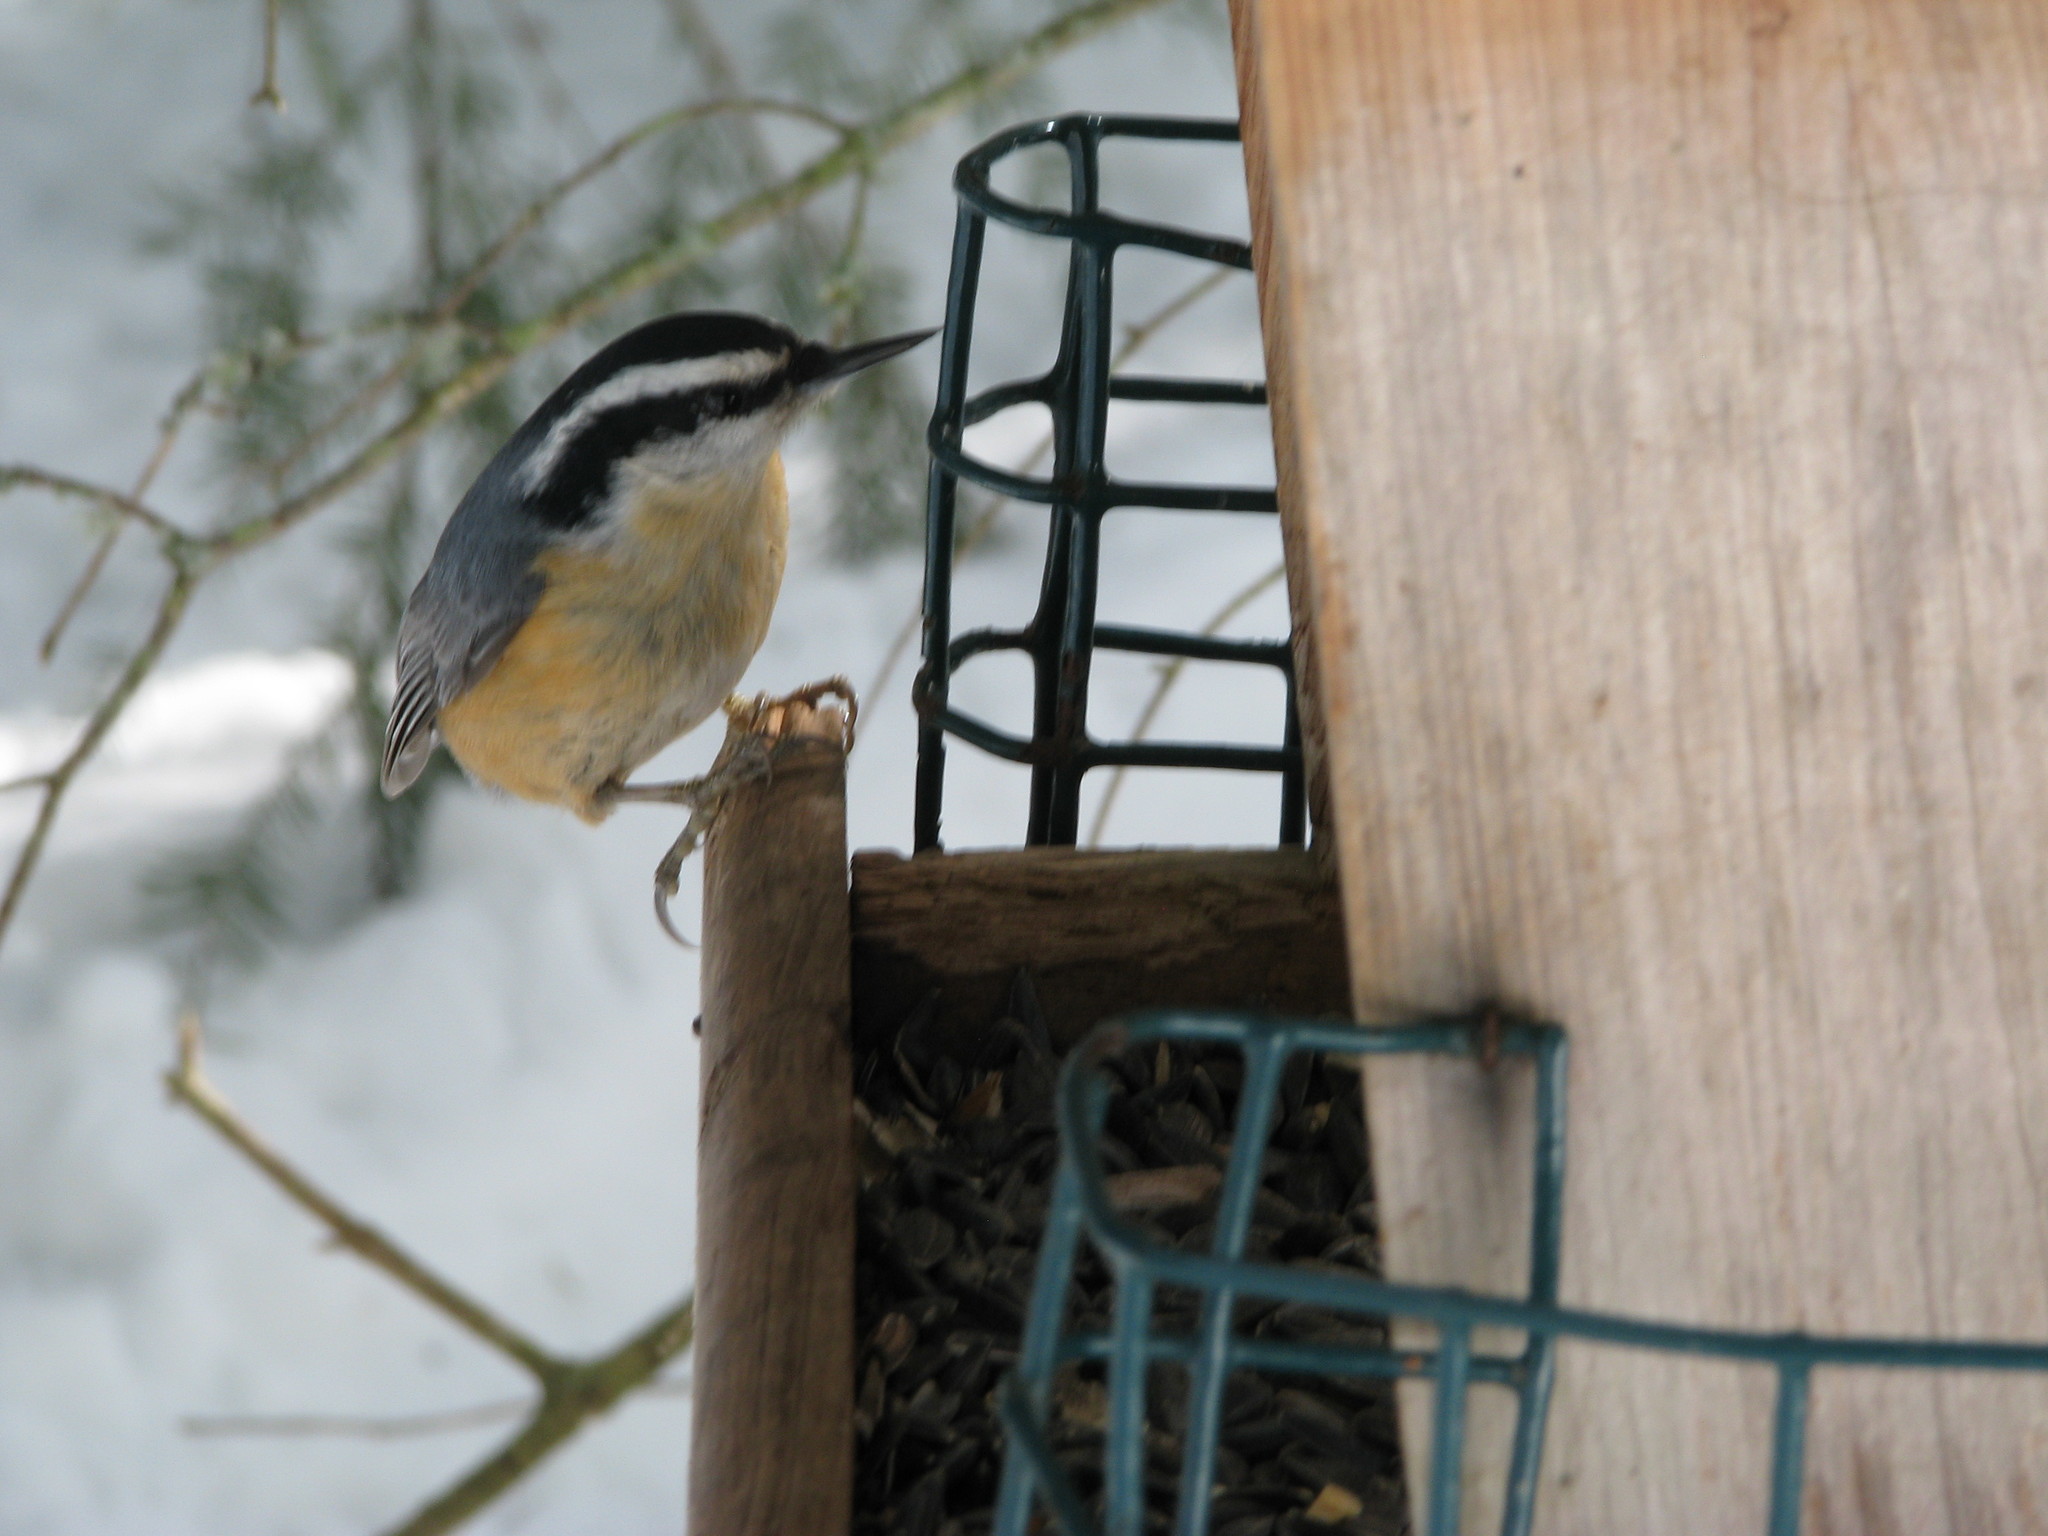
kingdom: Animalia
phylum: Chordata
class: Aves
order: Passeriformes
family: Sittidae
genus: Sitta
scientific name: Sitta canadensis
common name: Red-breasted nuthatch
